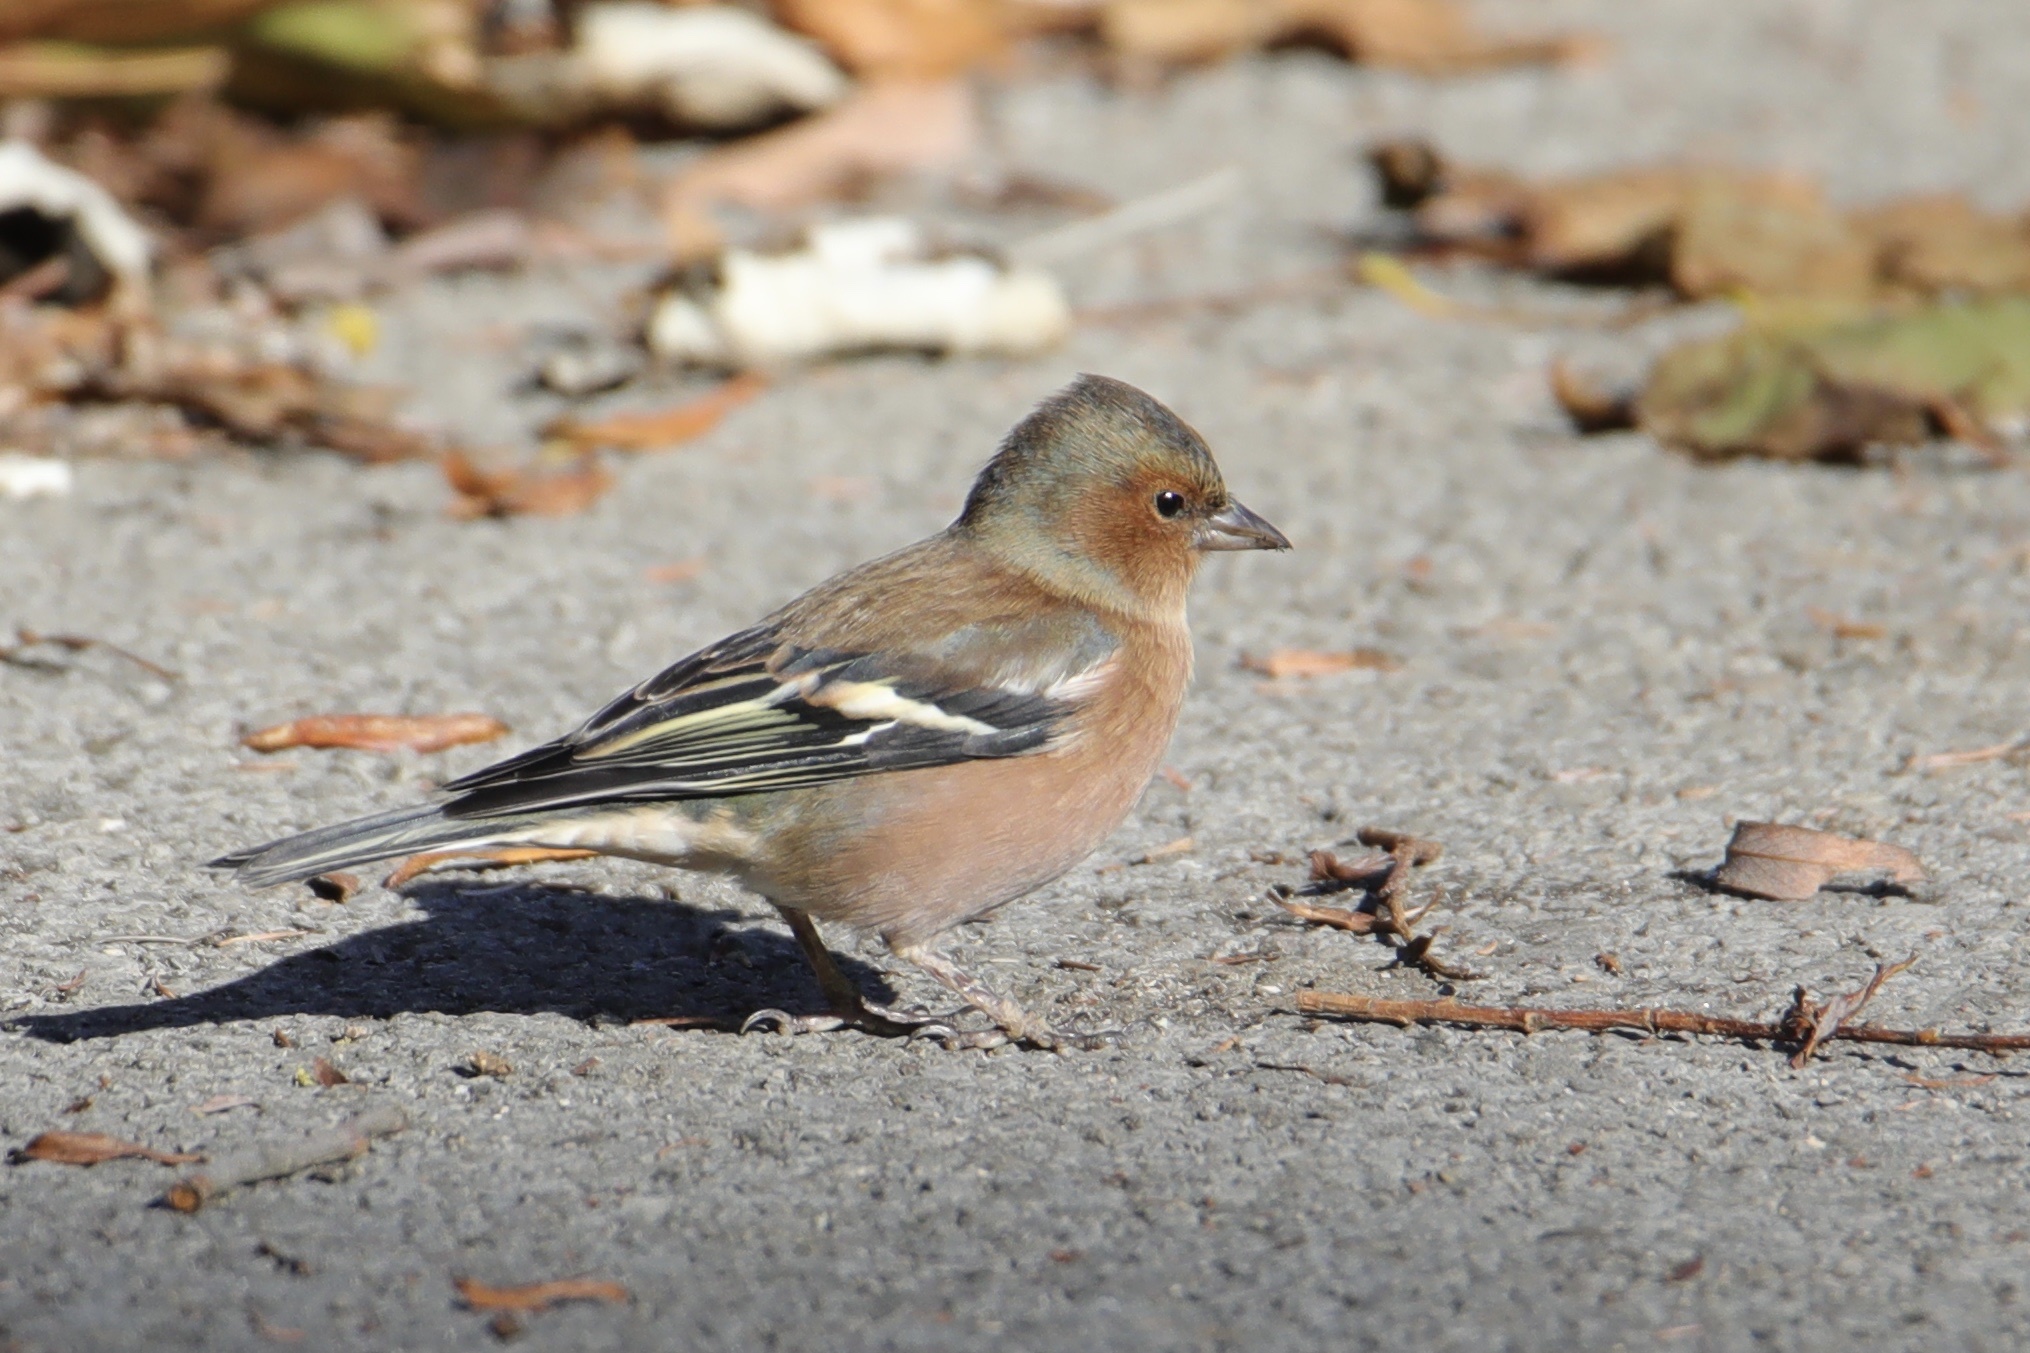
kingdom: Animalia
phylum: Chordata
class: Aves
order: Passeriformes
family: Fringillidae
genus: Fringilla
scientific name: Fringilla coelebs
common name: Common chaffinch
